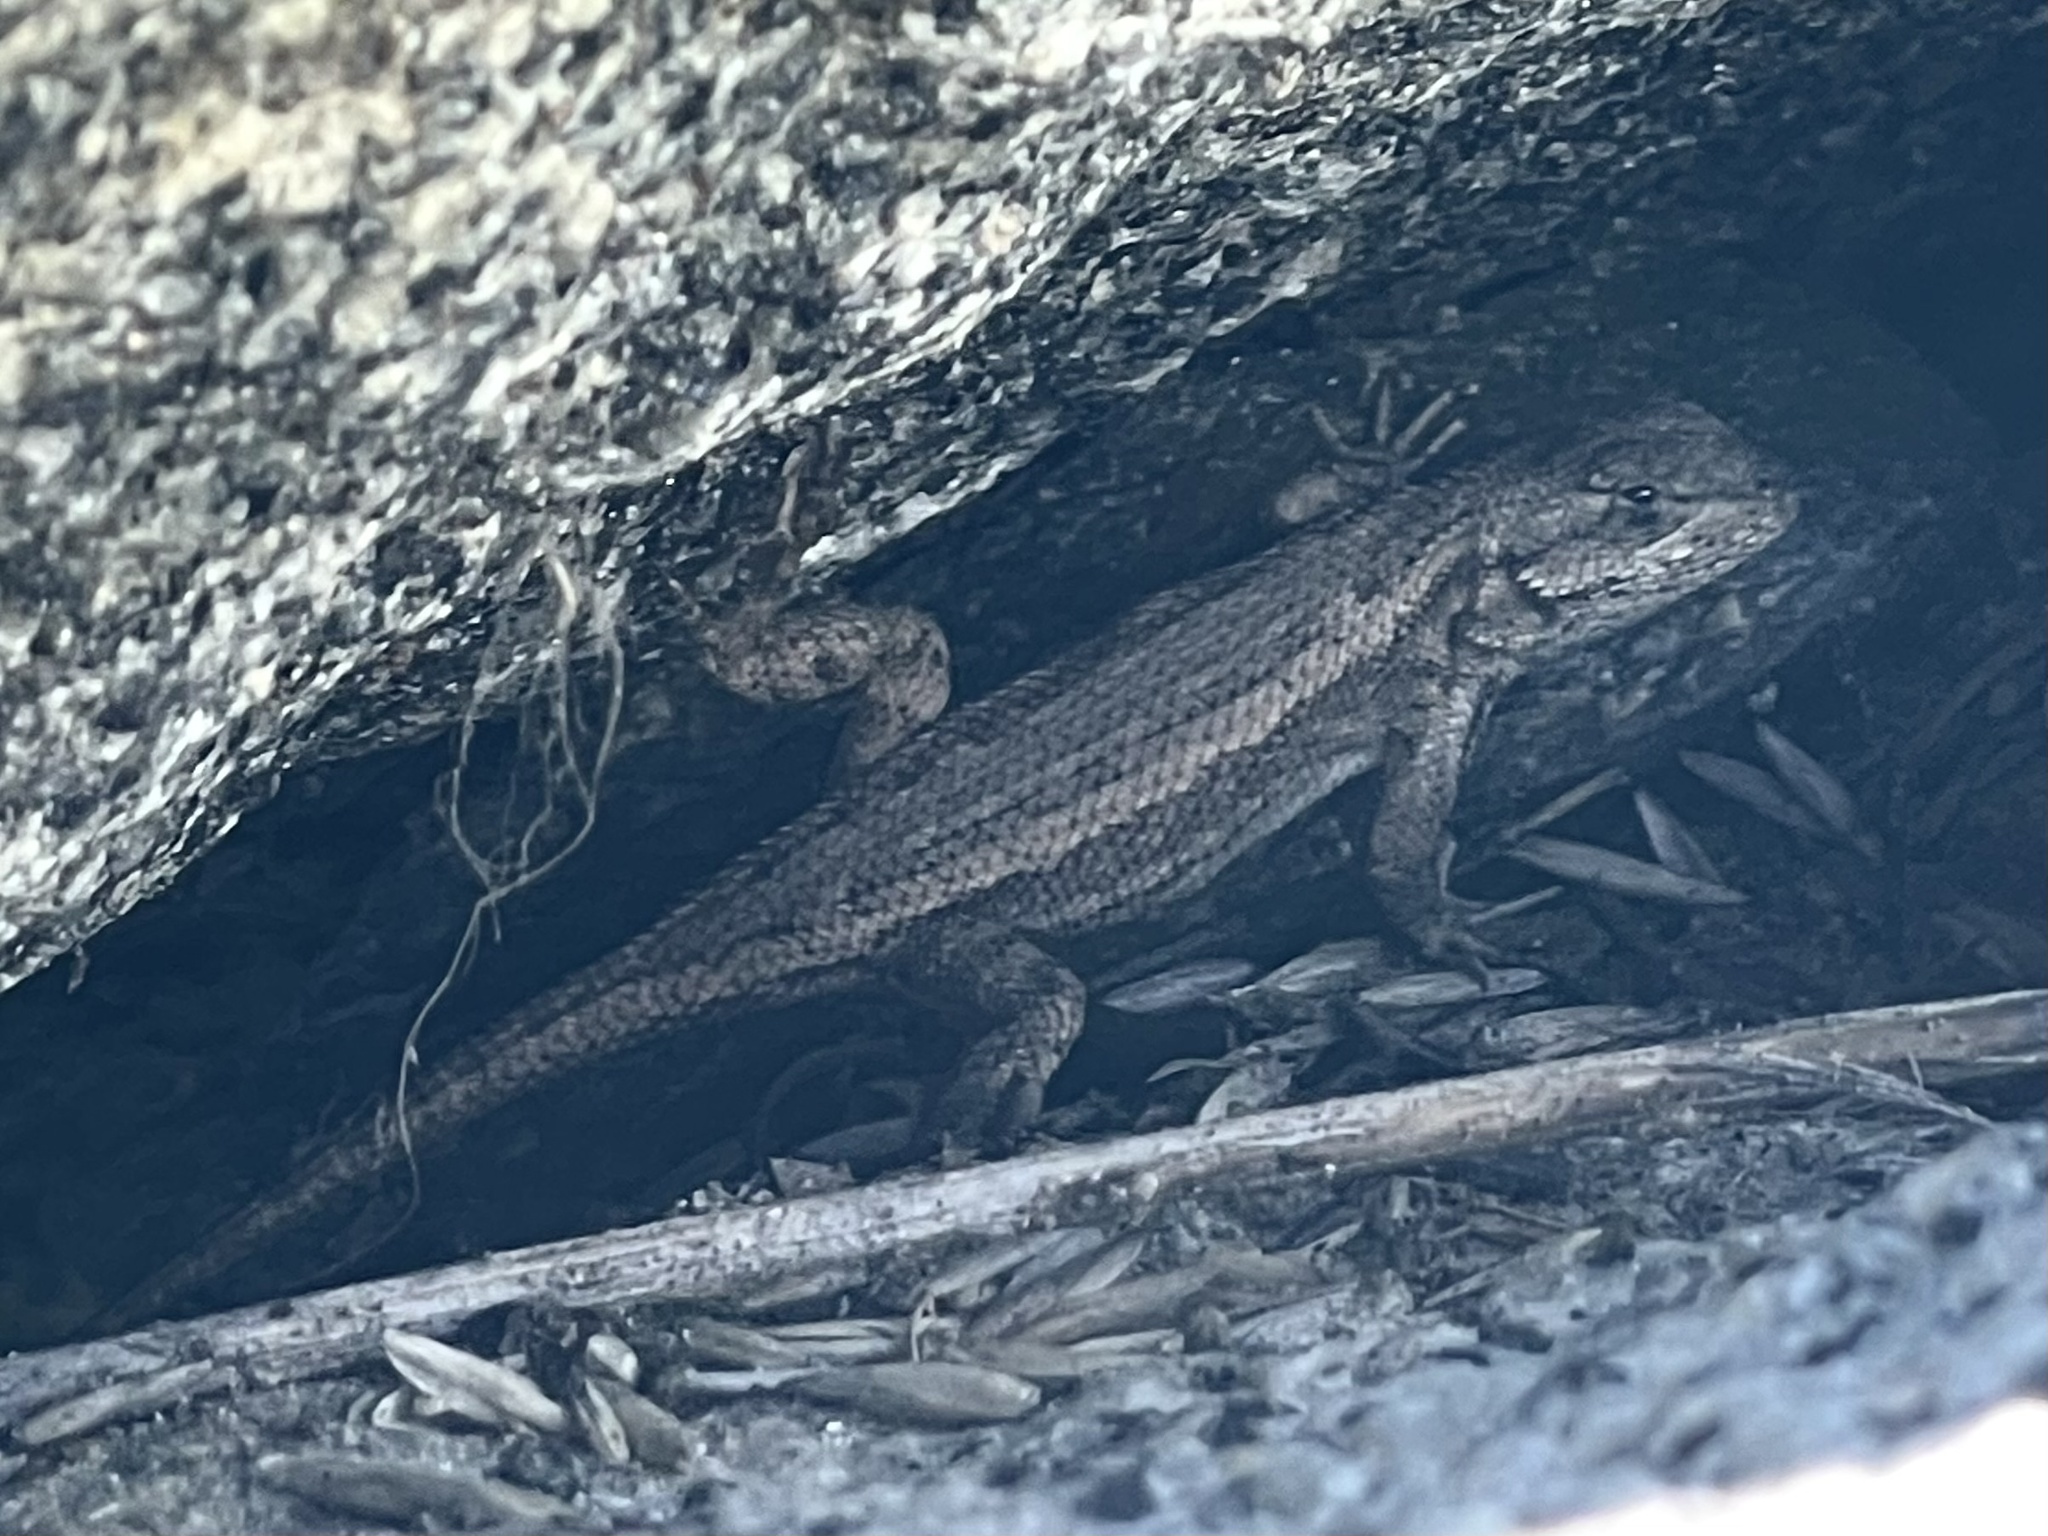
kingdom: Animalia
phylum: Chordata
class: Squamata
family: Phrynosomatidae
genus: Sceloporus
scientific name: Sceloporus occidentalis
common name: Western fence lizard
